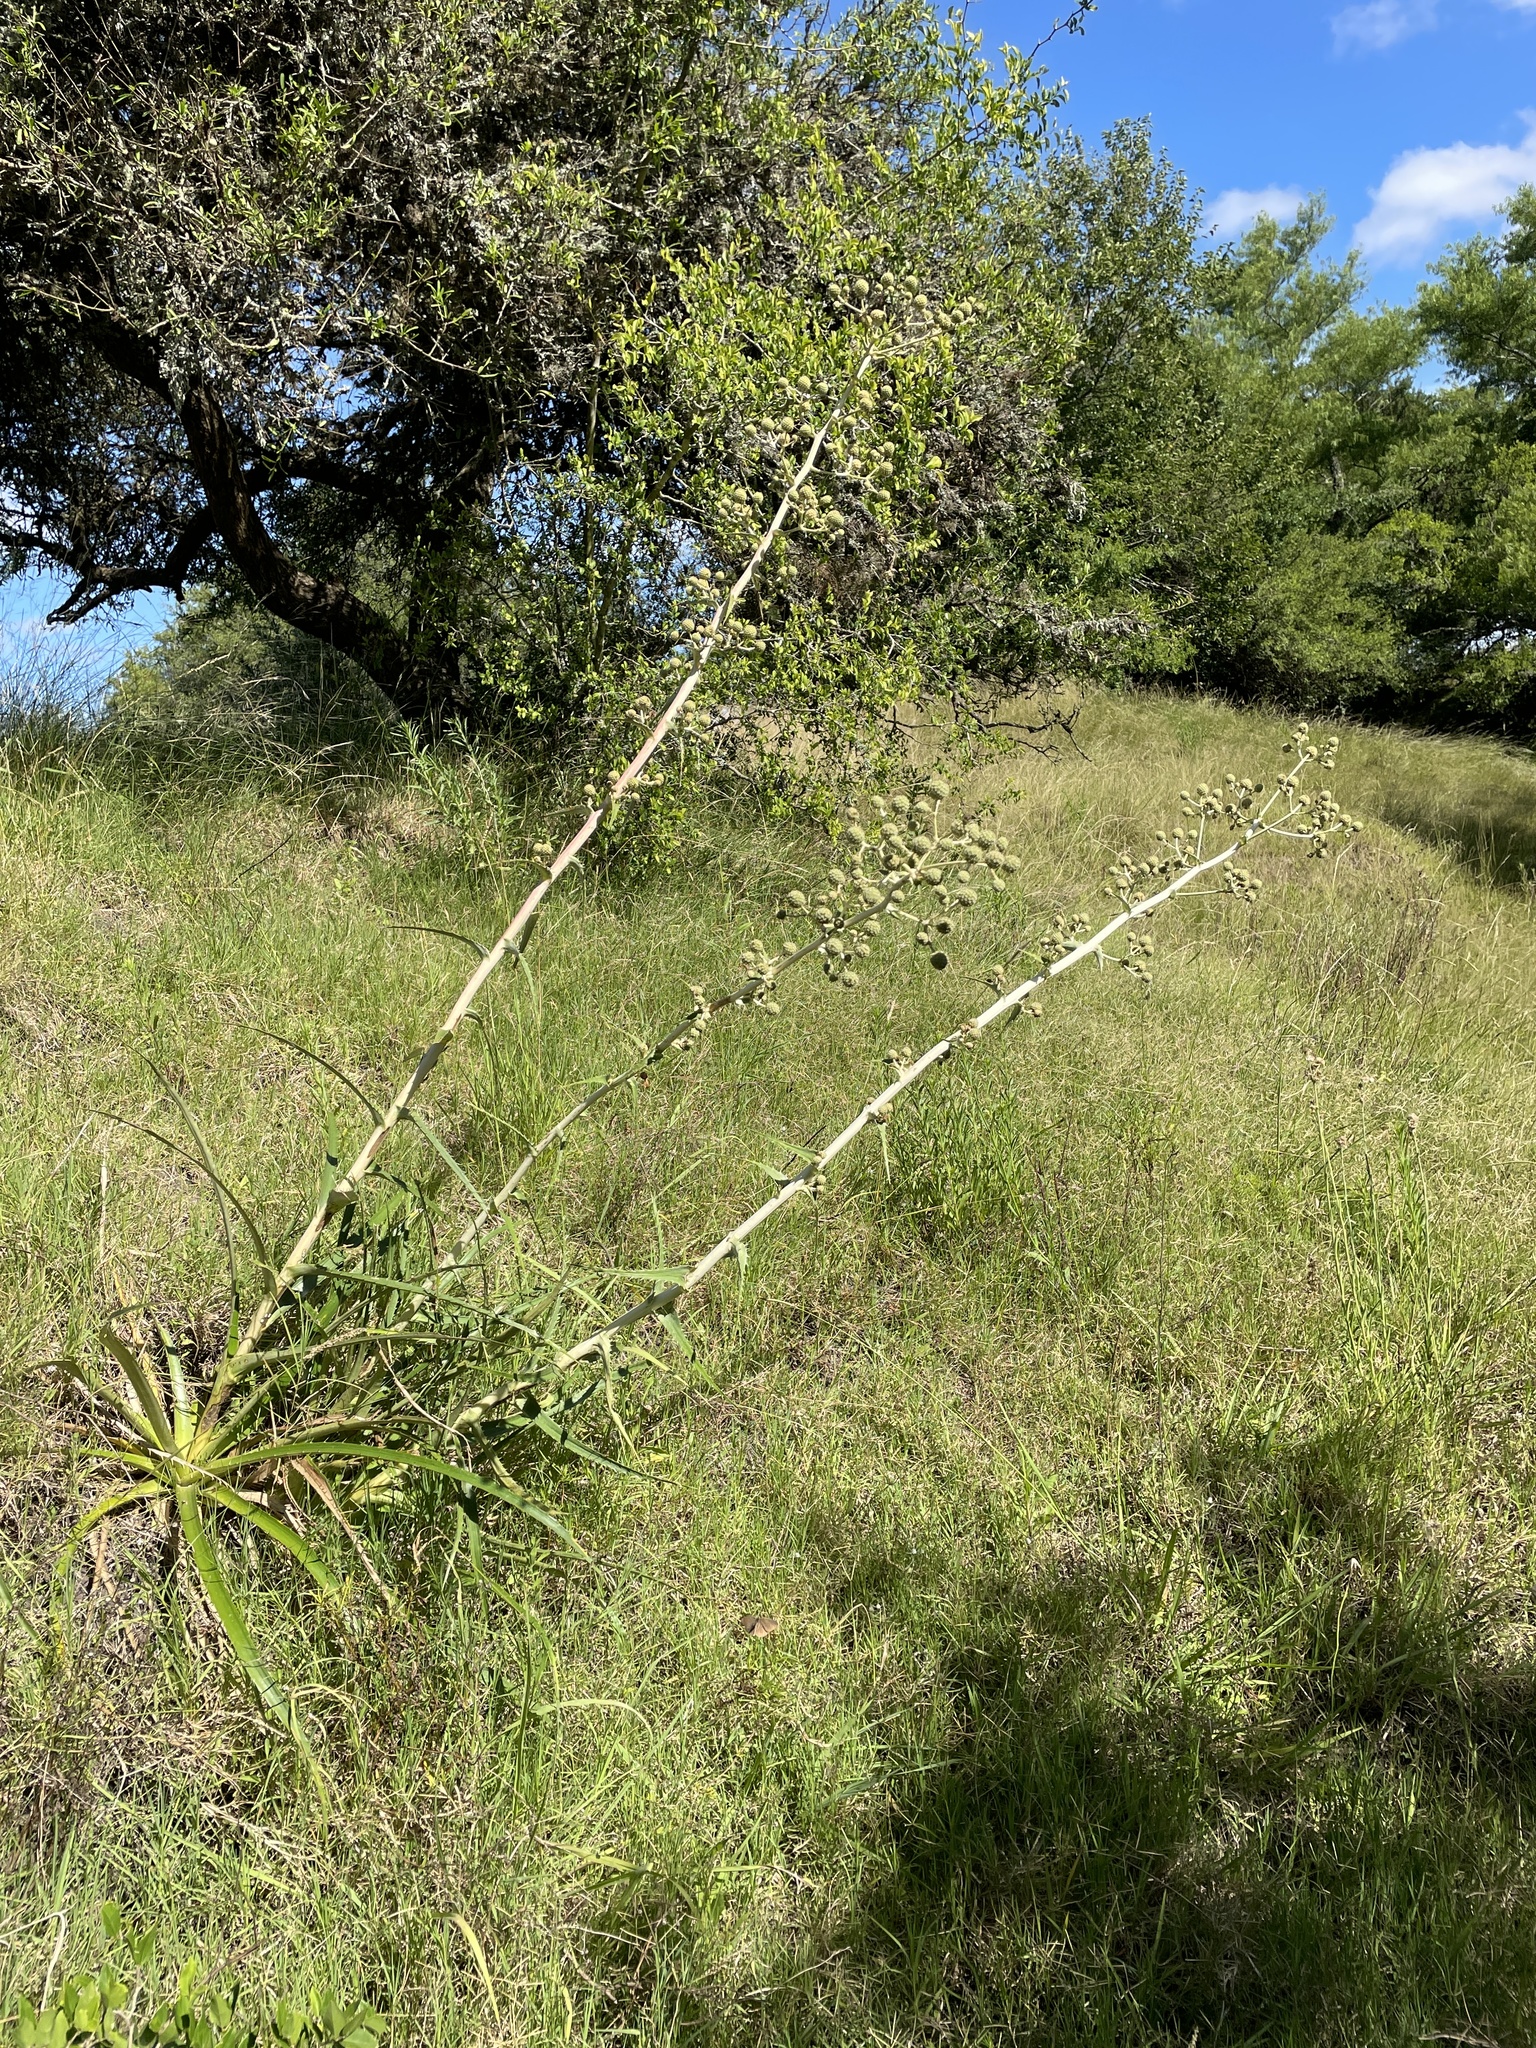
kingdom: Plantae
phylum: Tracheophyta
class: Magnoliopsida
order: Apiales
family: Apiaceae
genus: Eryngium
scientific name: Eryngium horridum
